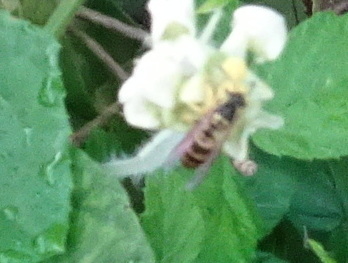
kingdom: Animalia
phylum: Arthropoda
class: Insecta
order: Hymenoptera
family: Vespidae
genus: Vespula
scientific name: Vespula maculifrons
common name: Eastern yellowjacket
